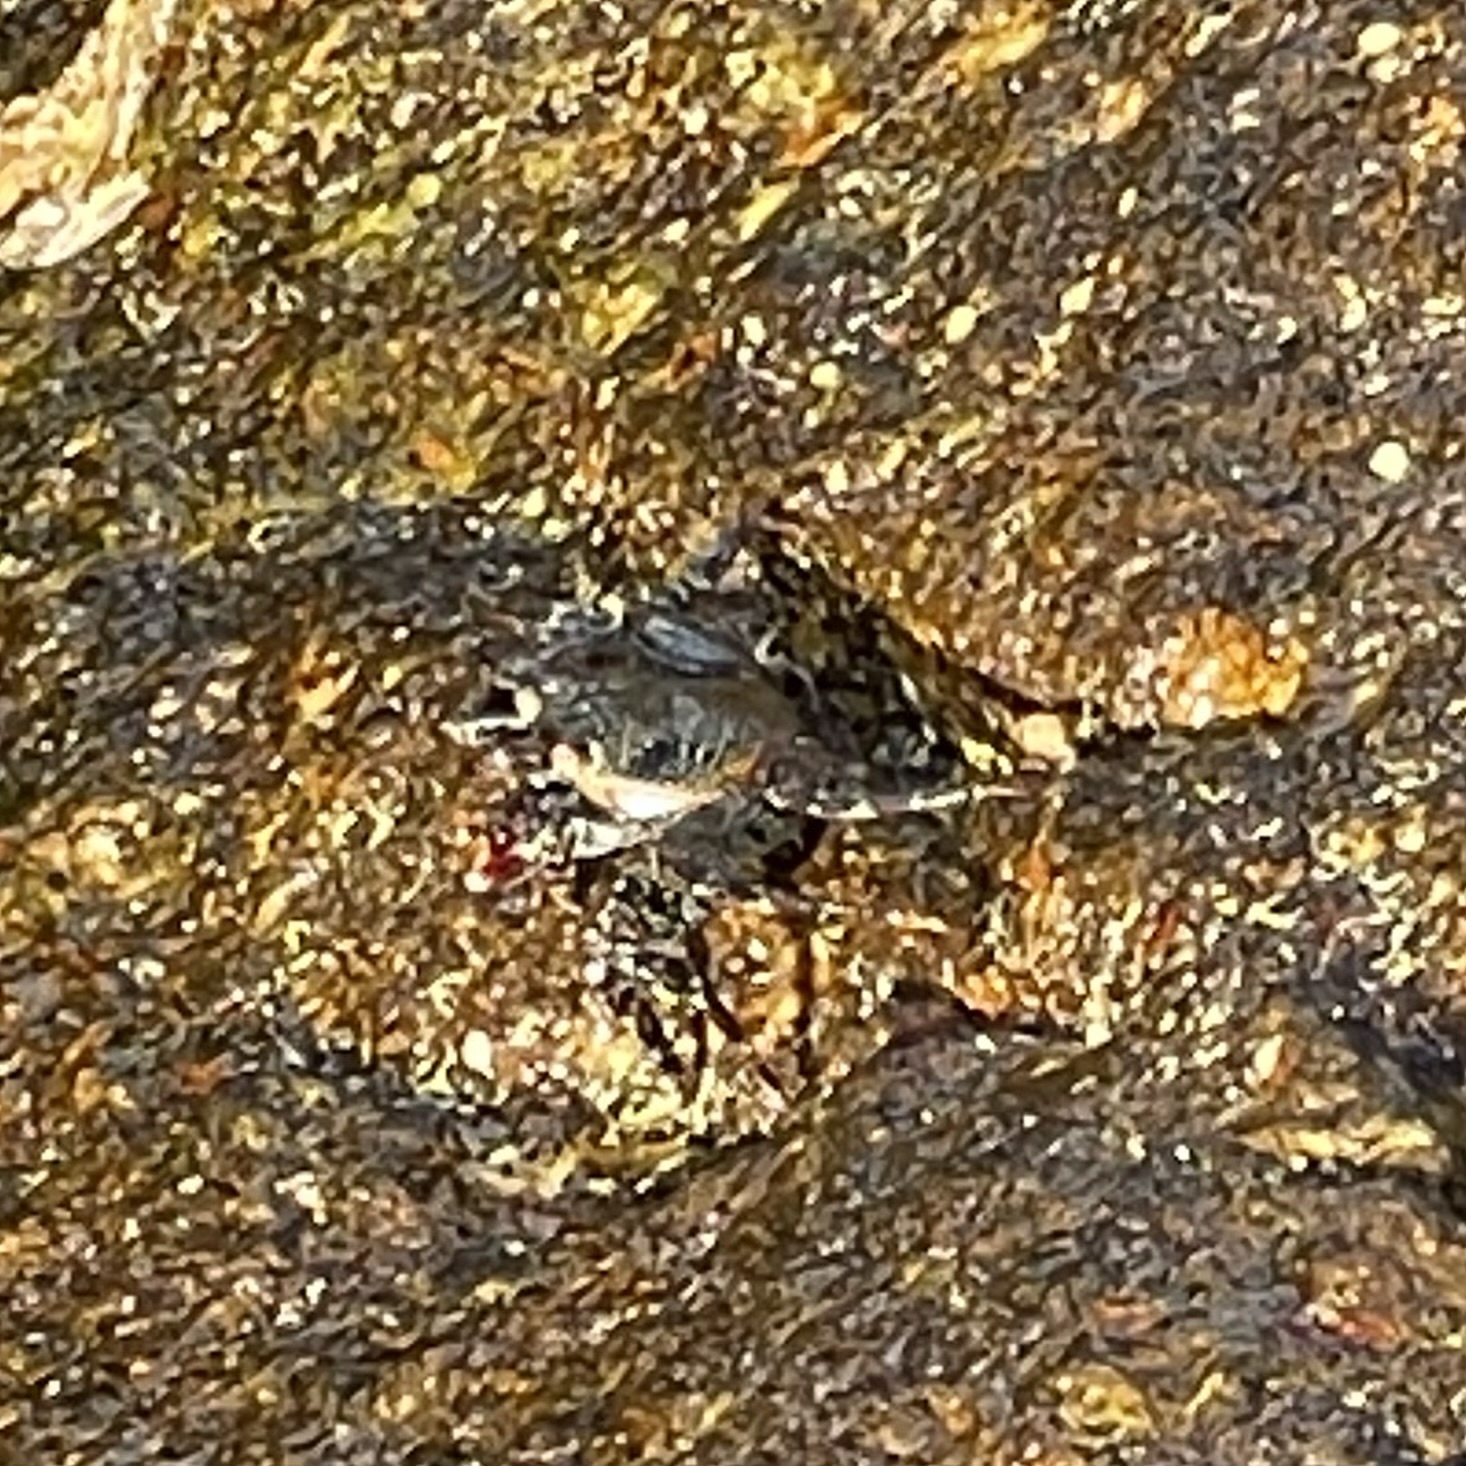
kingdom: Animalia
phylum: Arthropoda
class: Malacostraca
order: Decapoda
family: Grapsidae
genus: Grapsus
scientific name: Grapsus grapsus
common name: Sally lightfoot
